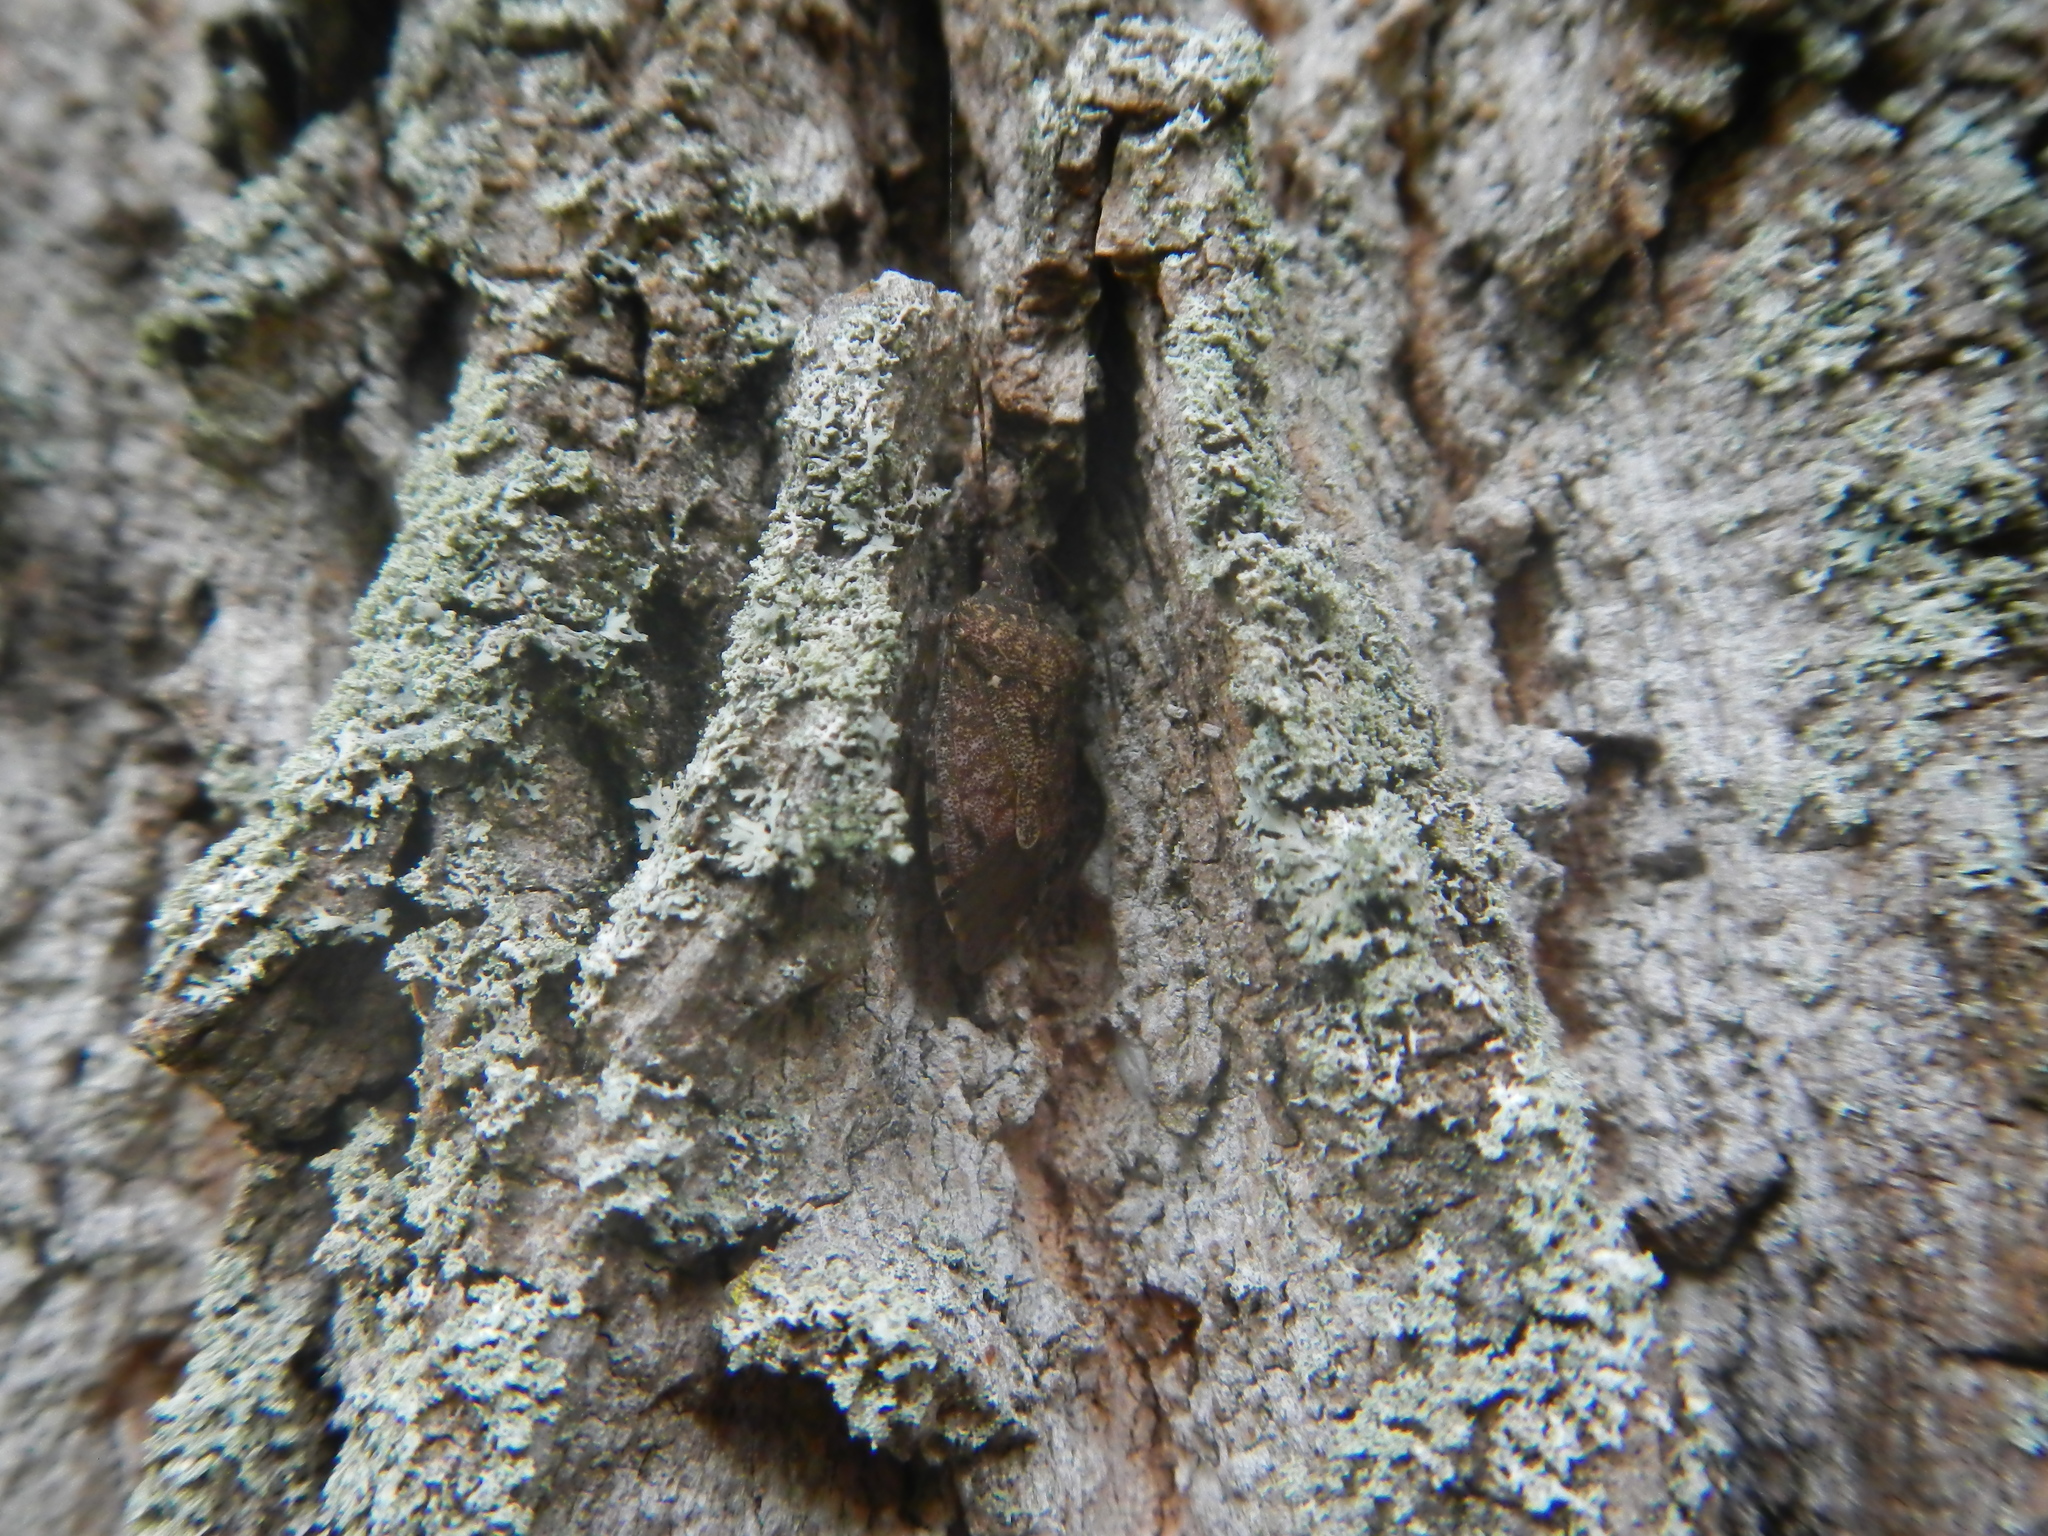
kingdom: Animalia
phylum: Arthropoda
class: Insecta
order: Hemiptera
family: Pentatomidae
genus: Halyomorpha
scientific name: Halyomorpha halys
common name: Brown marmorated stink bug
